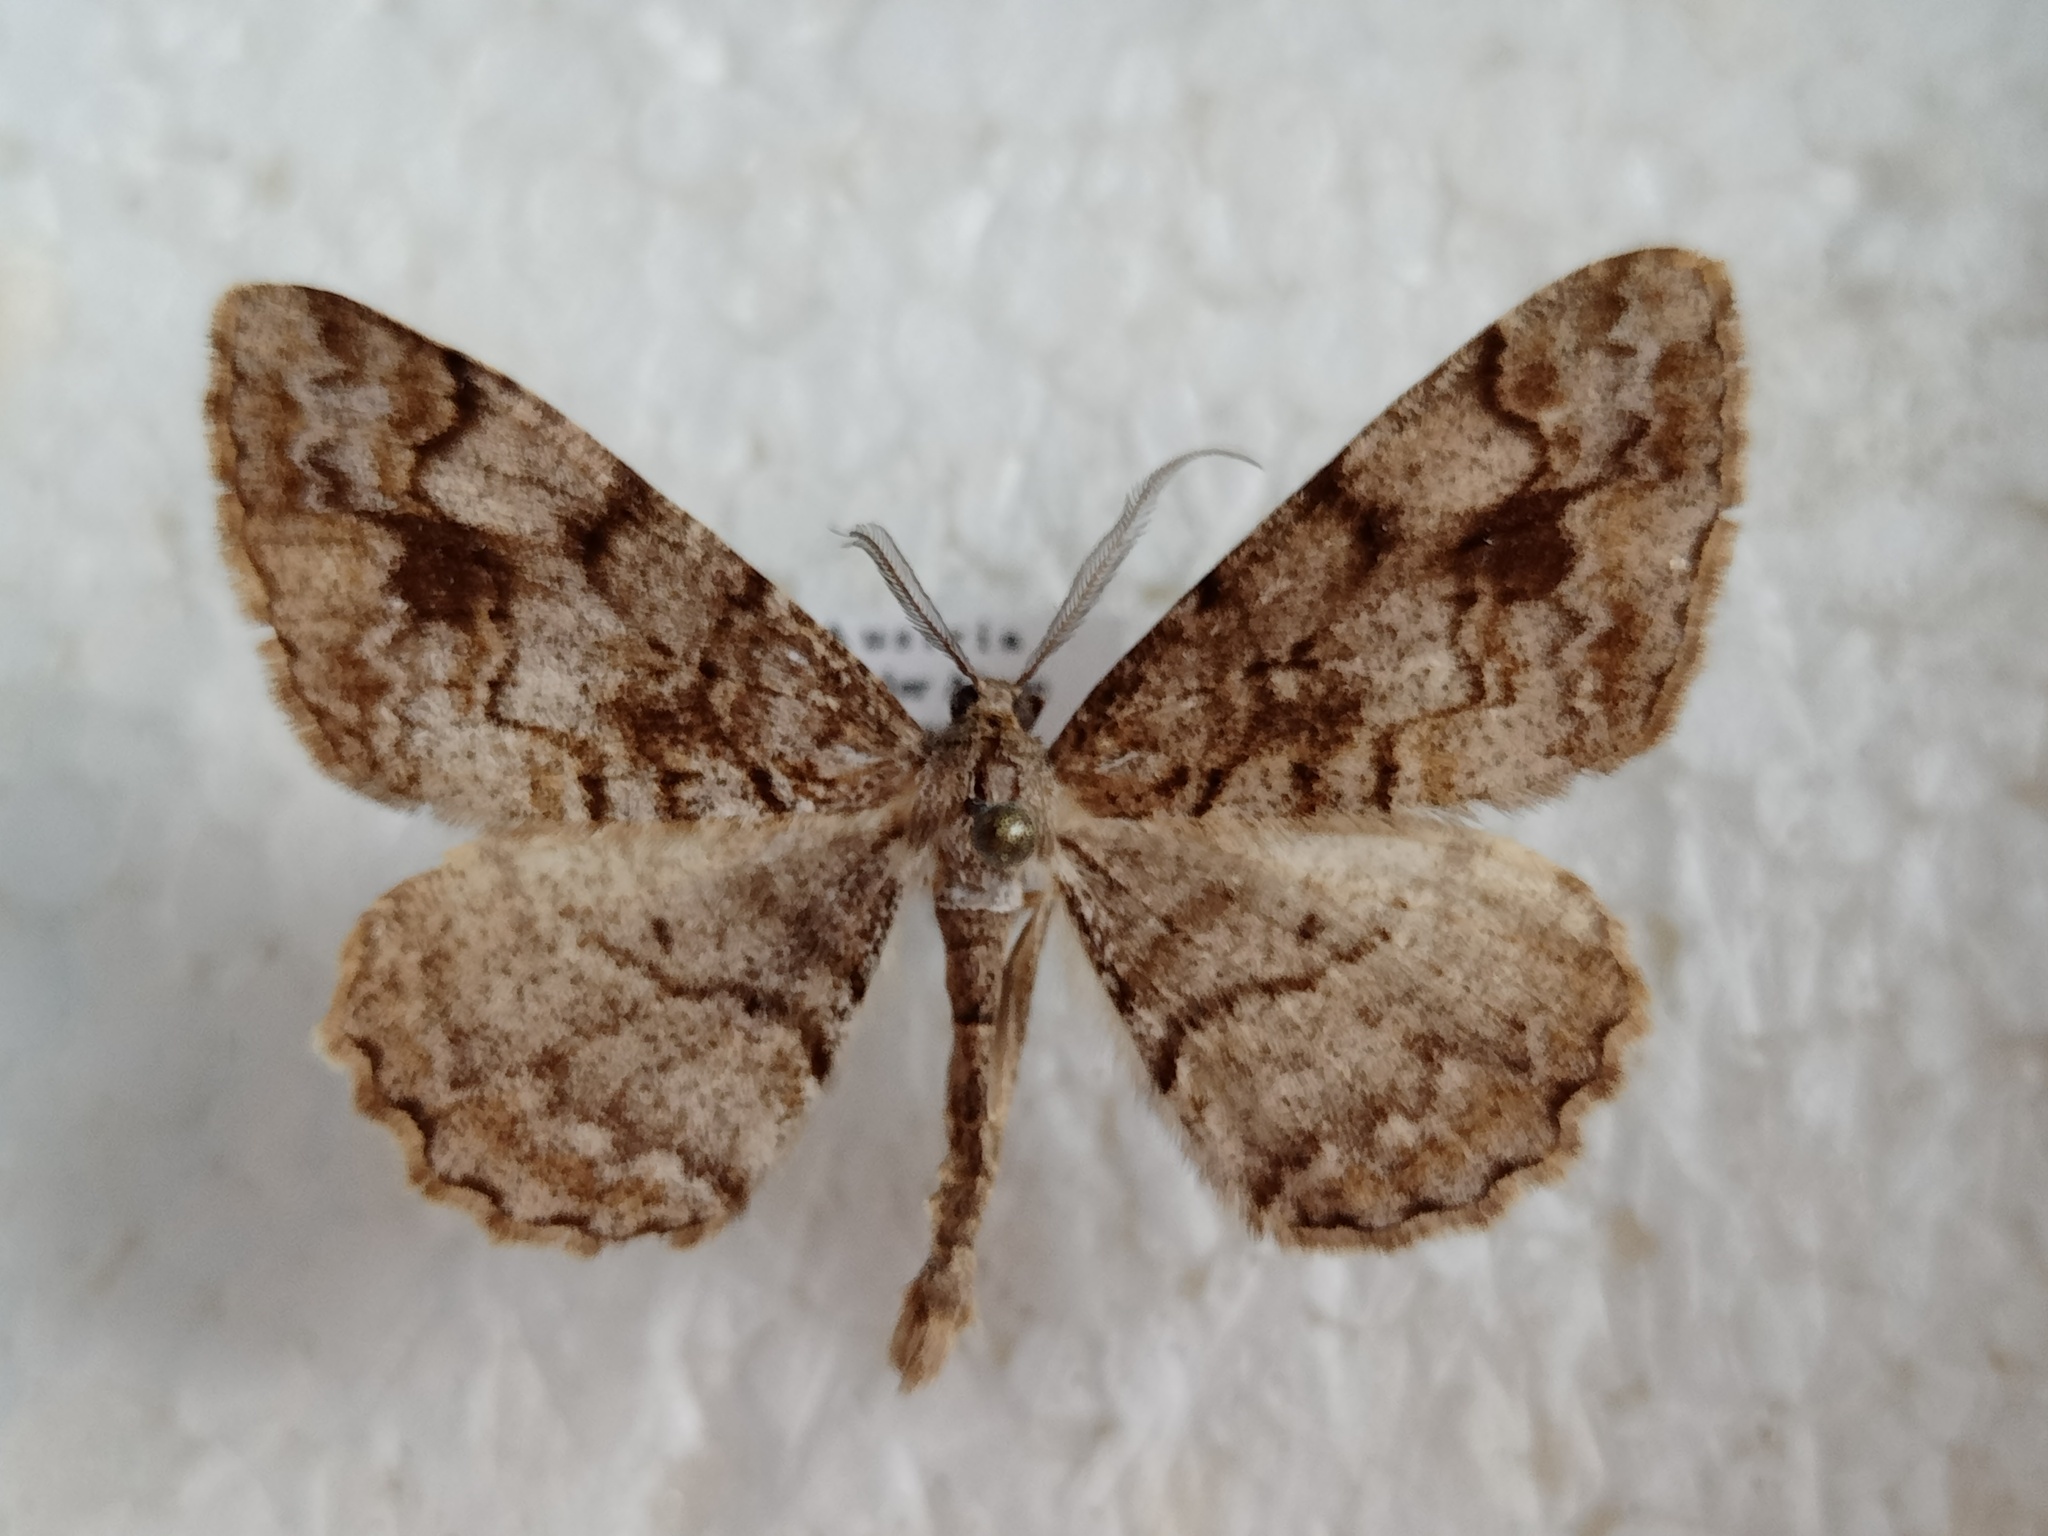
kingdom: Animalia
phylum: Arthropoda
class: Insecta
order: Lepidoptera
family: Geometridae
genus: Alcis
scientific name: Alcis repandata
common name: Mottled beauty
